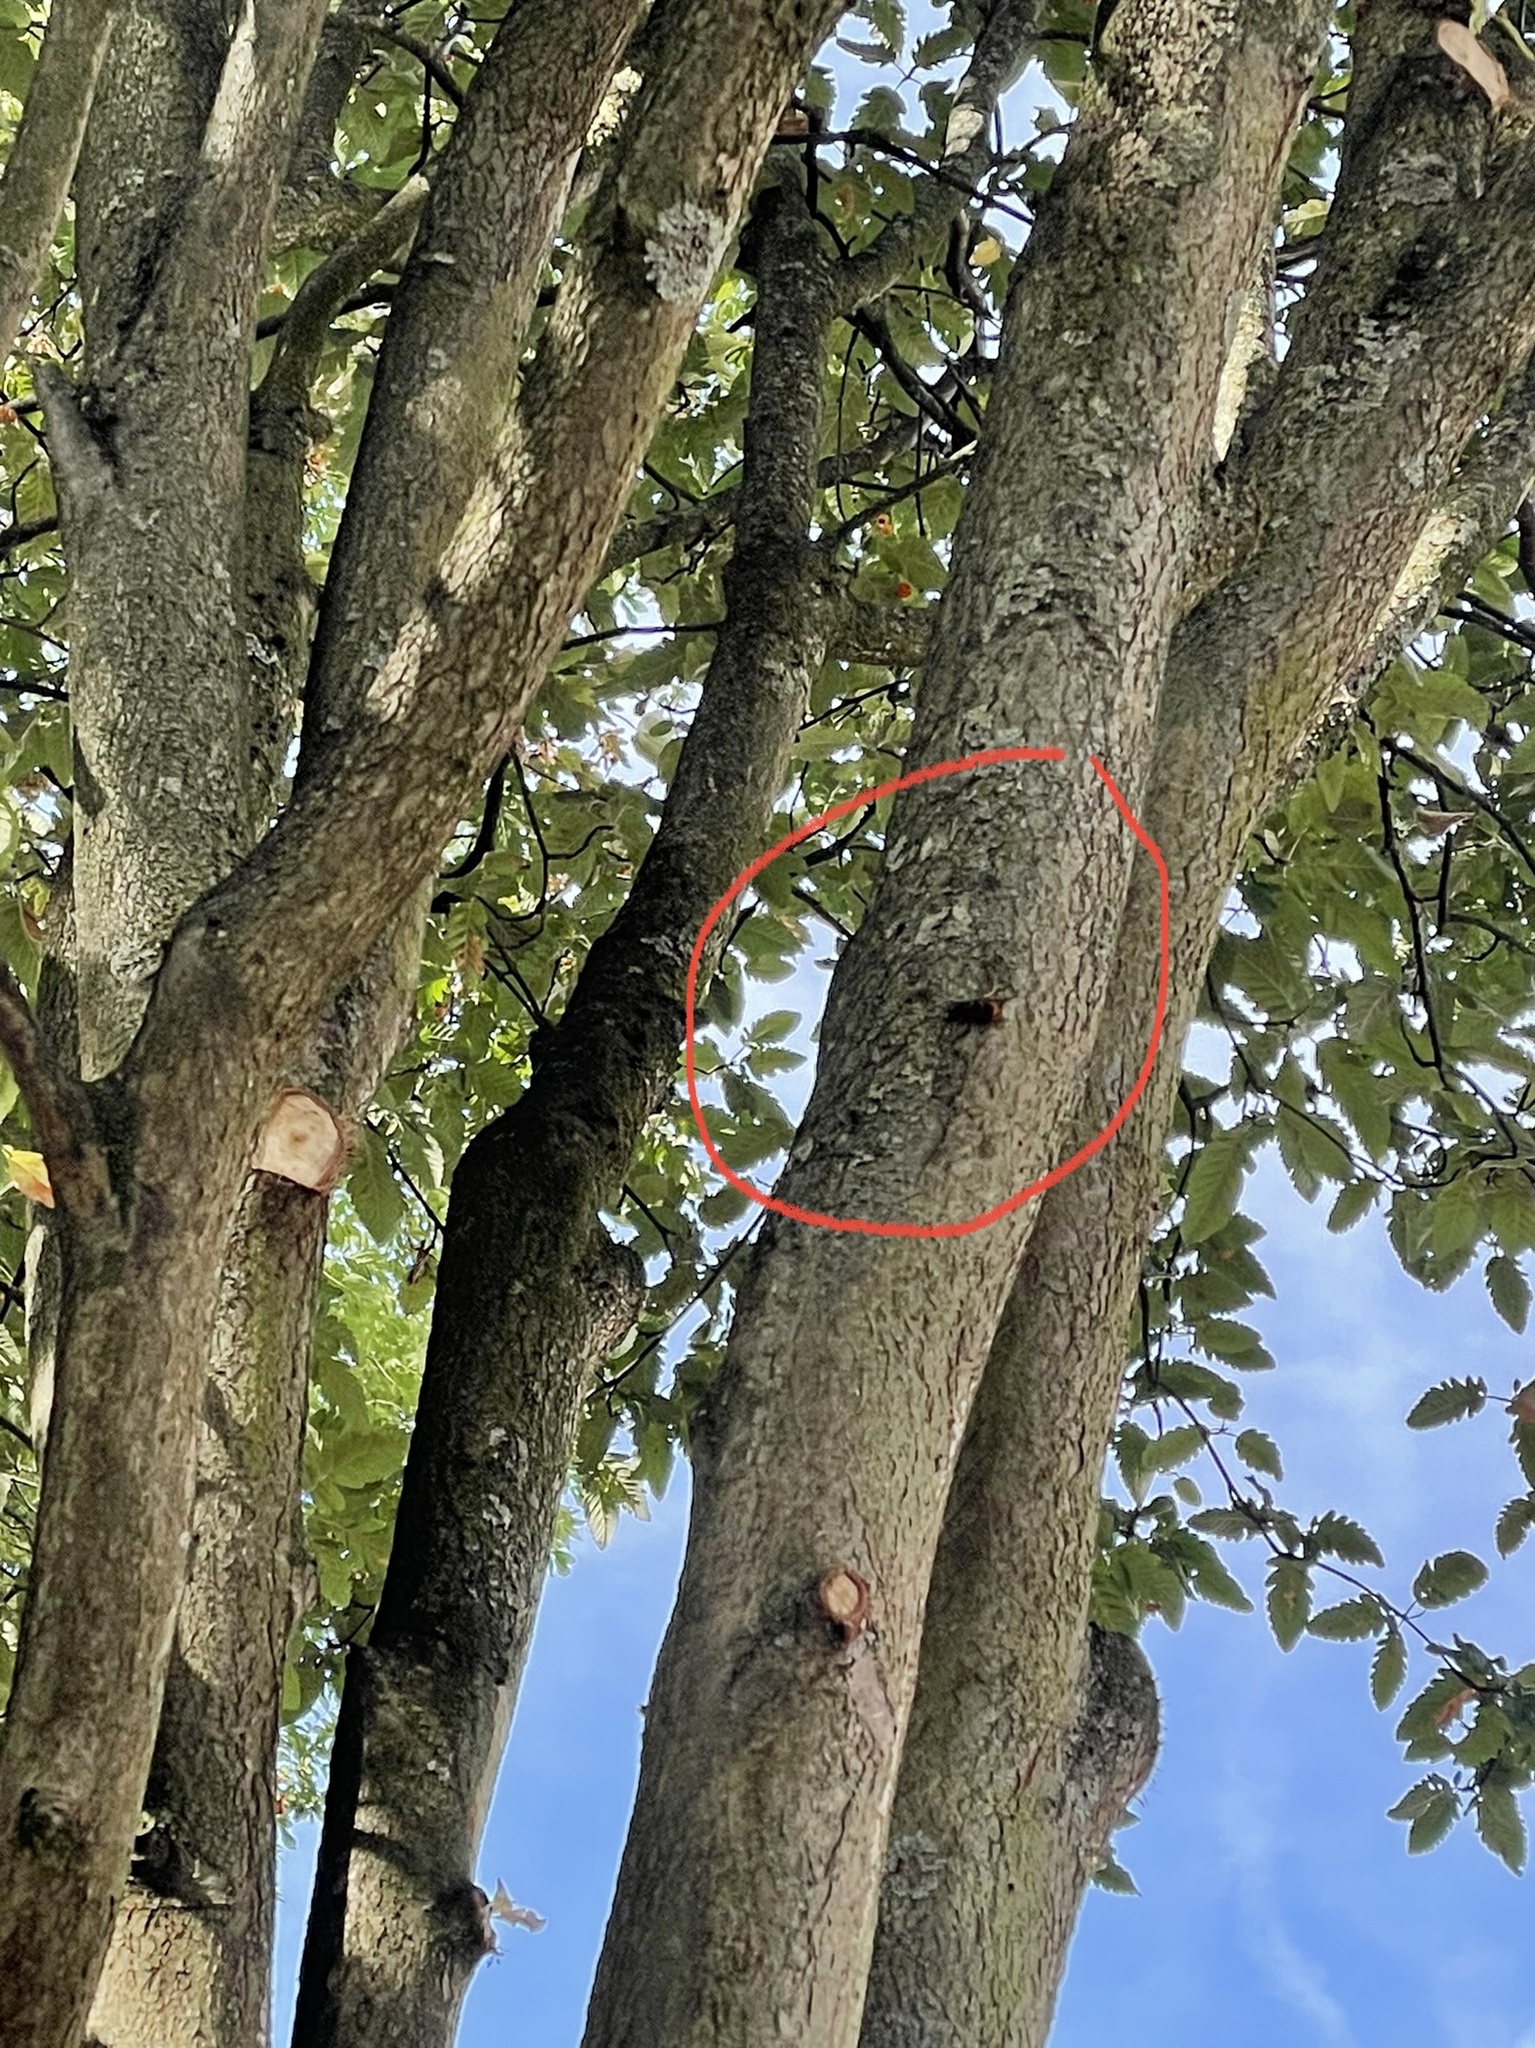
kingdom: Animalia
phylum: Arthropoda
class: Insecta
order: Hymenoptera
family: Vespidae
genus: Vespa
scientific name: Vespa velutina
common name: Asian hornet
